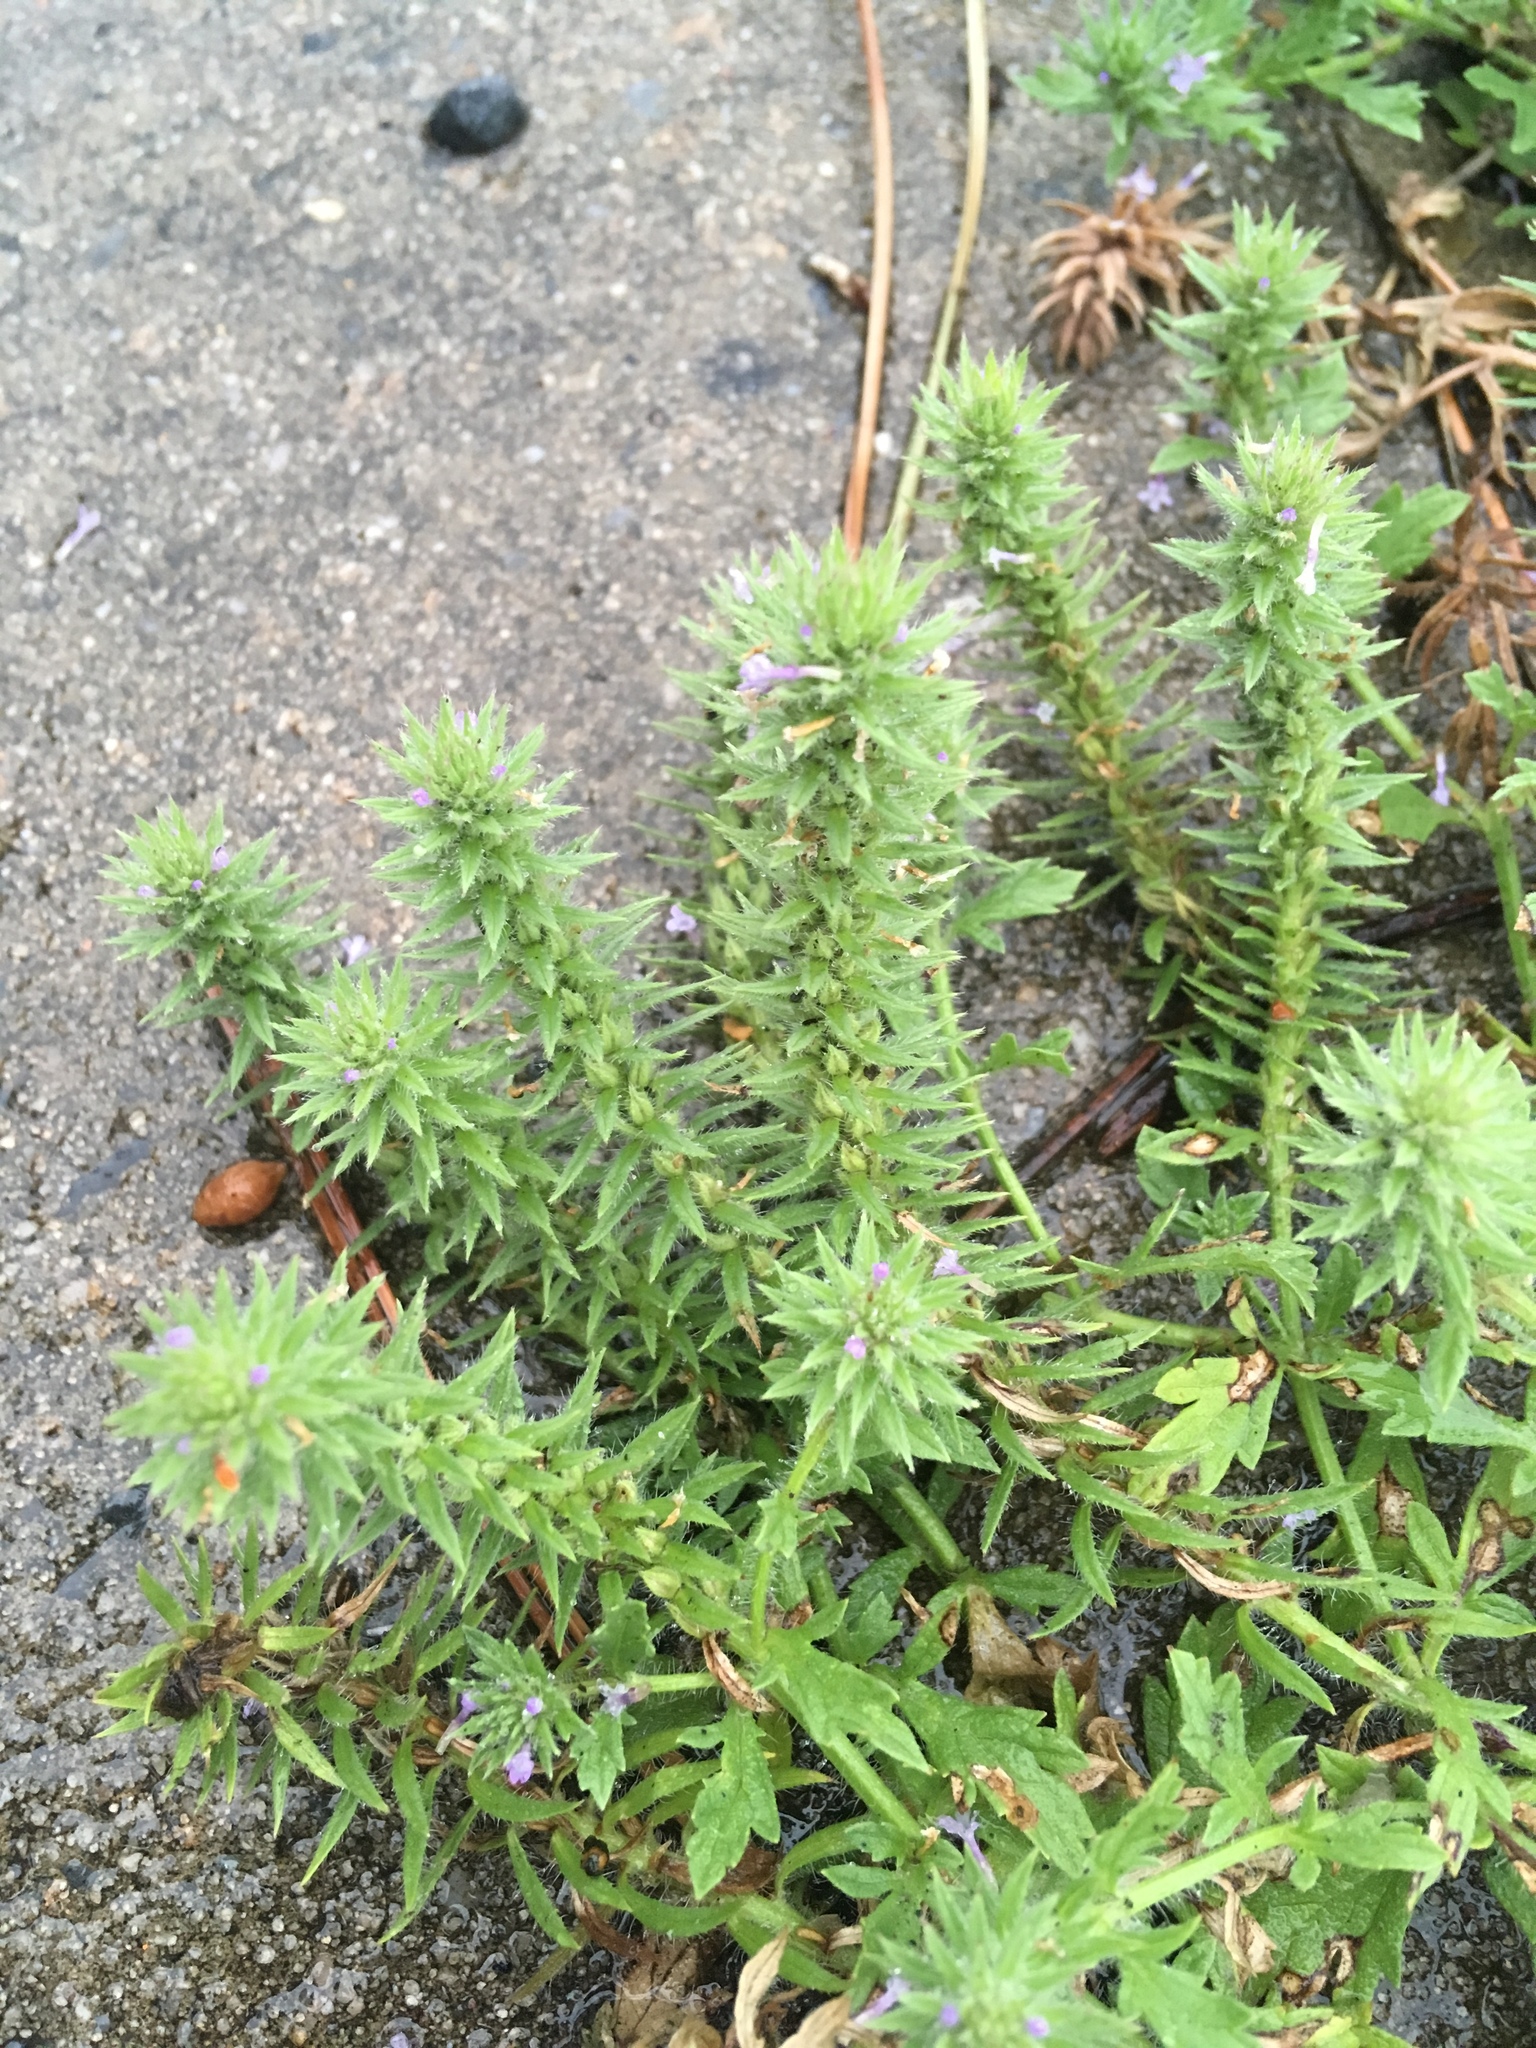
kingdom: Plantae
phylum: Tracheophyta
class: Magnoliopsida
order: Lamiales
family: Verbenaceae
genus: Verbena
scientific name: Verbena bracteata
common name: Bracted vervain
